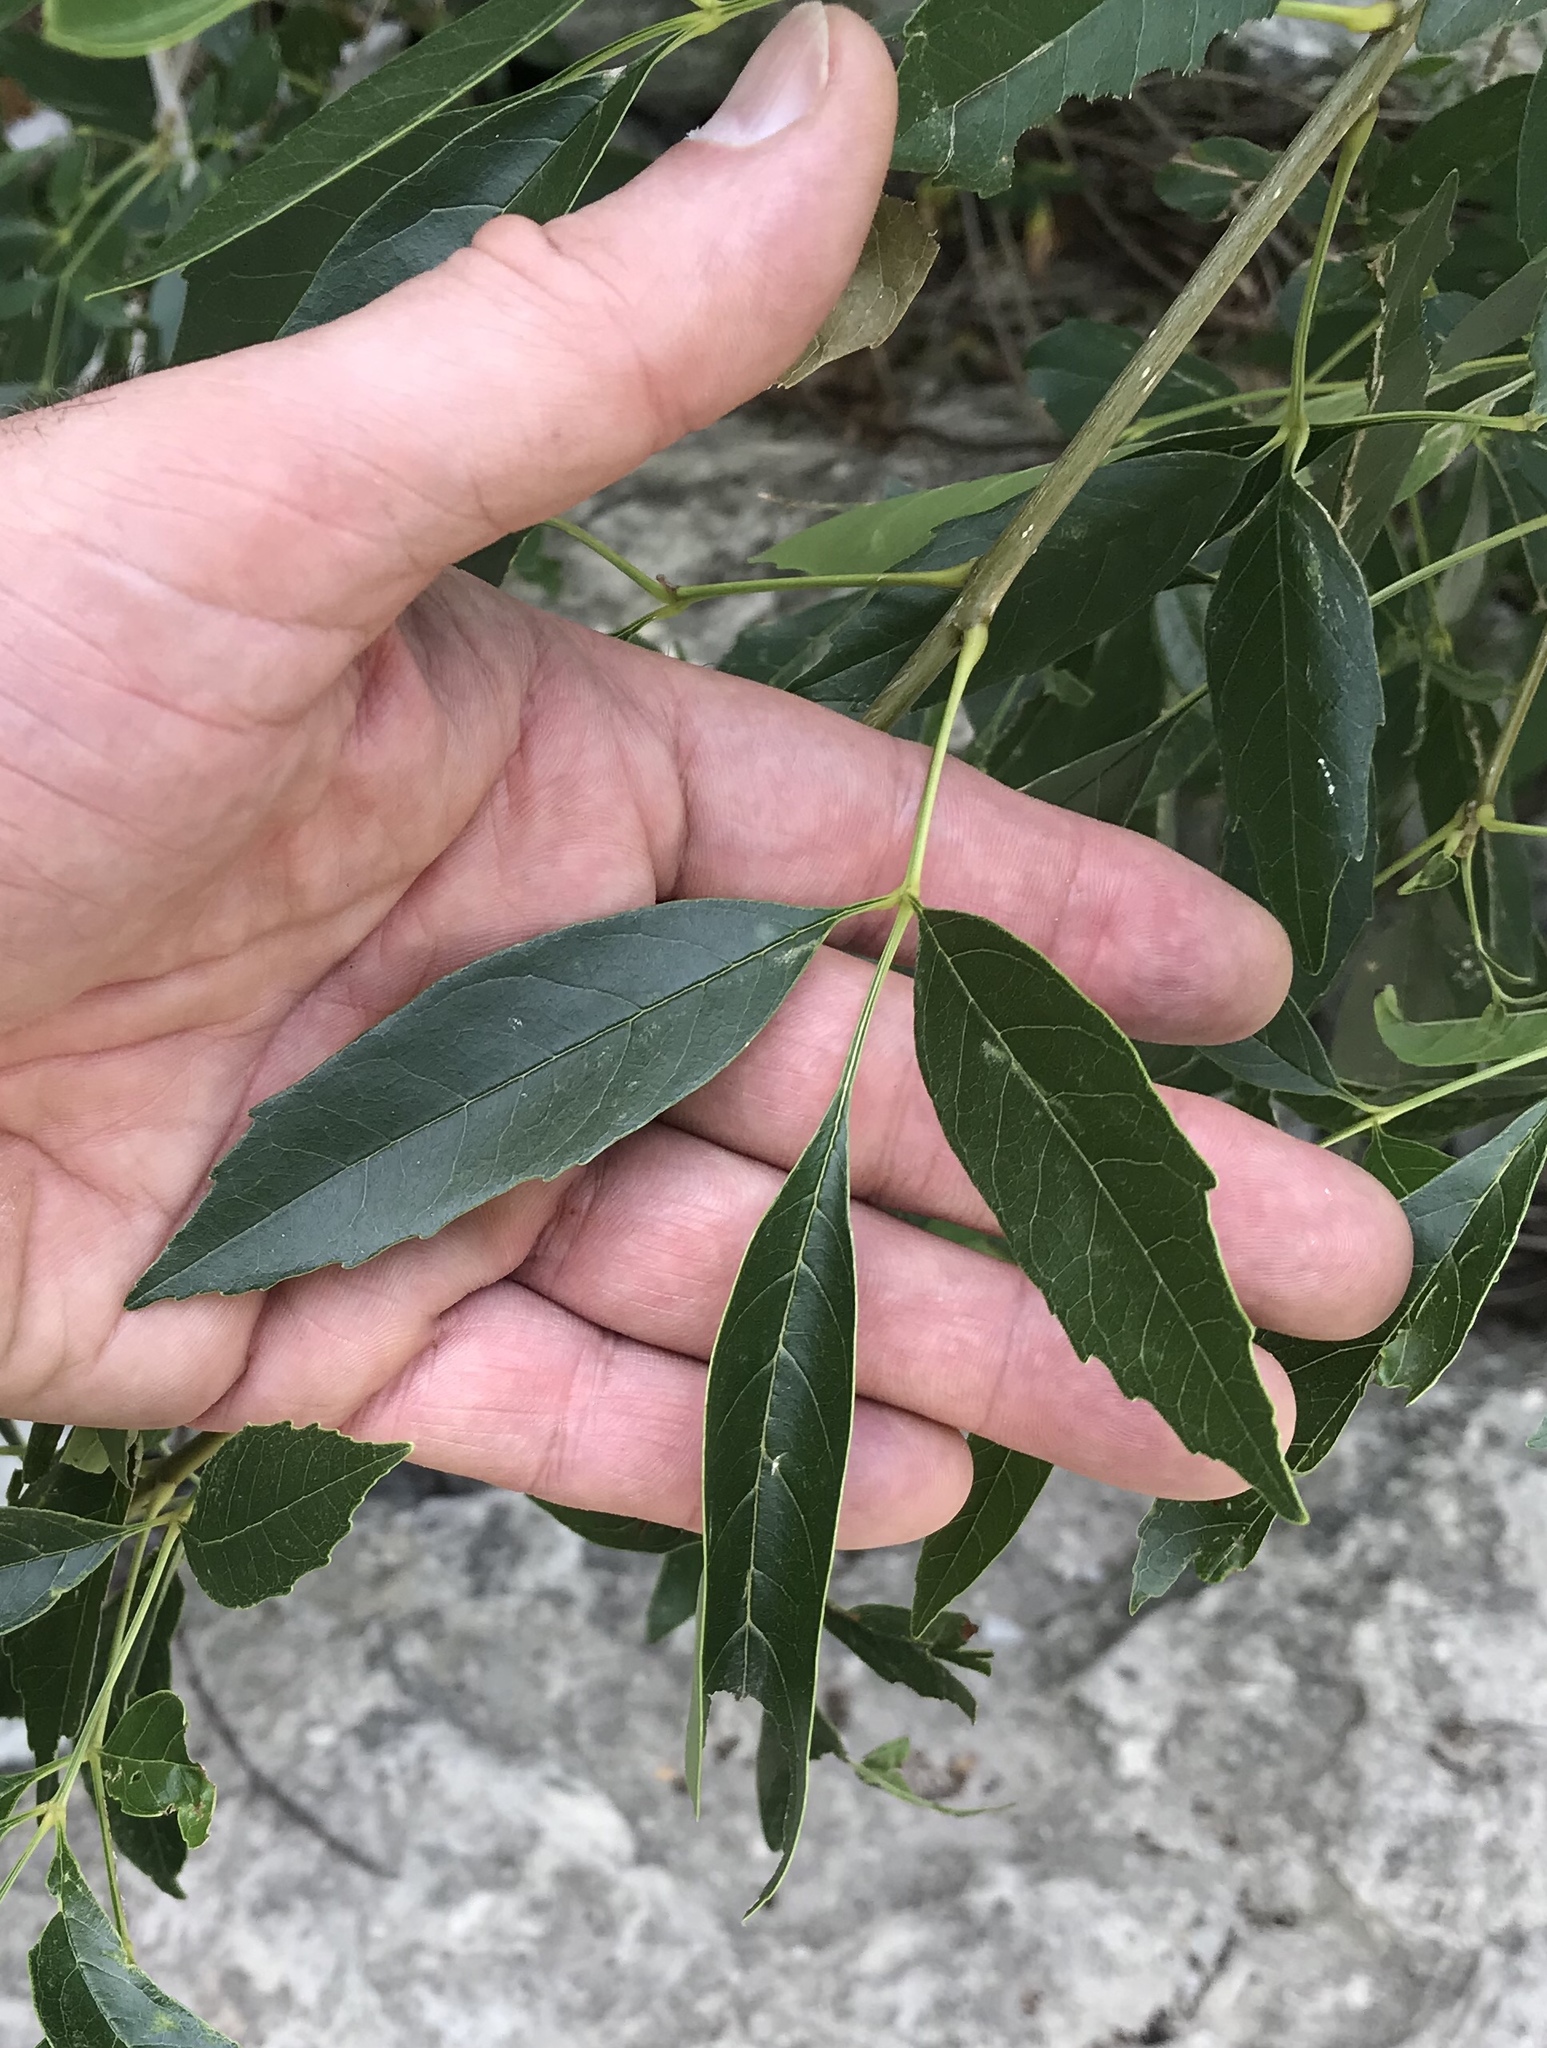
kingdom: Plantae
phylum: Tracheophyta
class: Magnoliopsida
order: Lamiales
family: Oleaceae
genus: Fraxinus
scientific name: Fraxinus berlandieriana
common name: Berlandier ash
